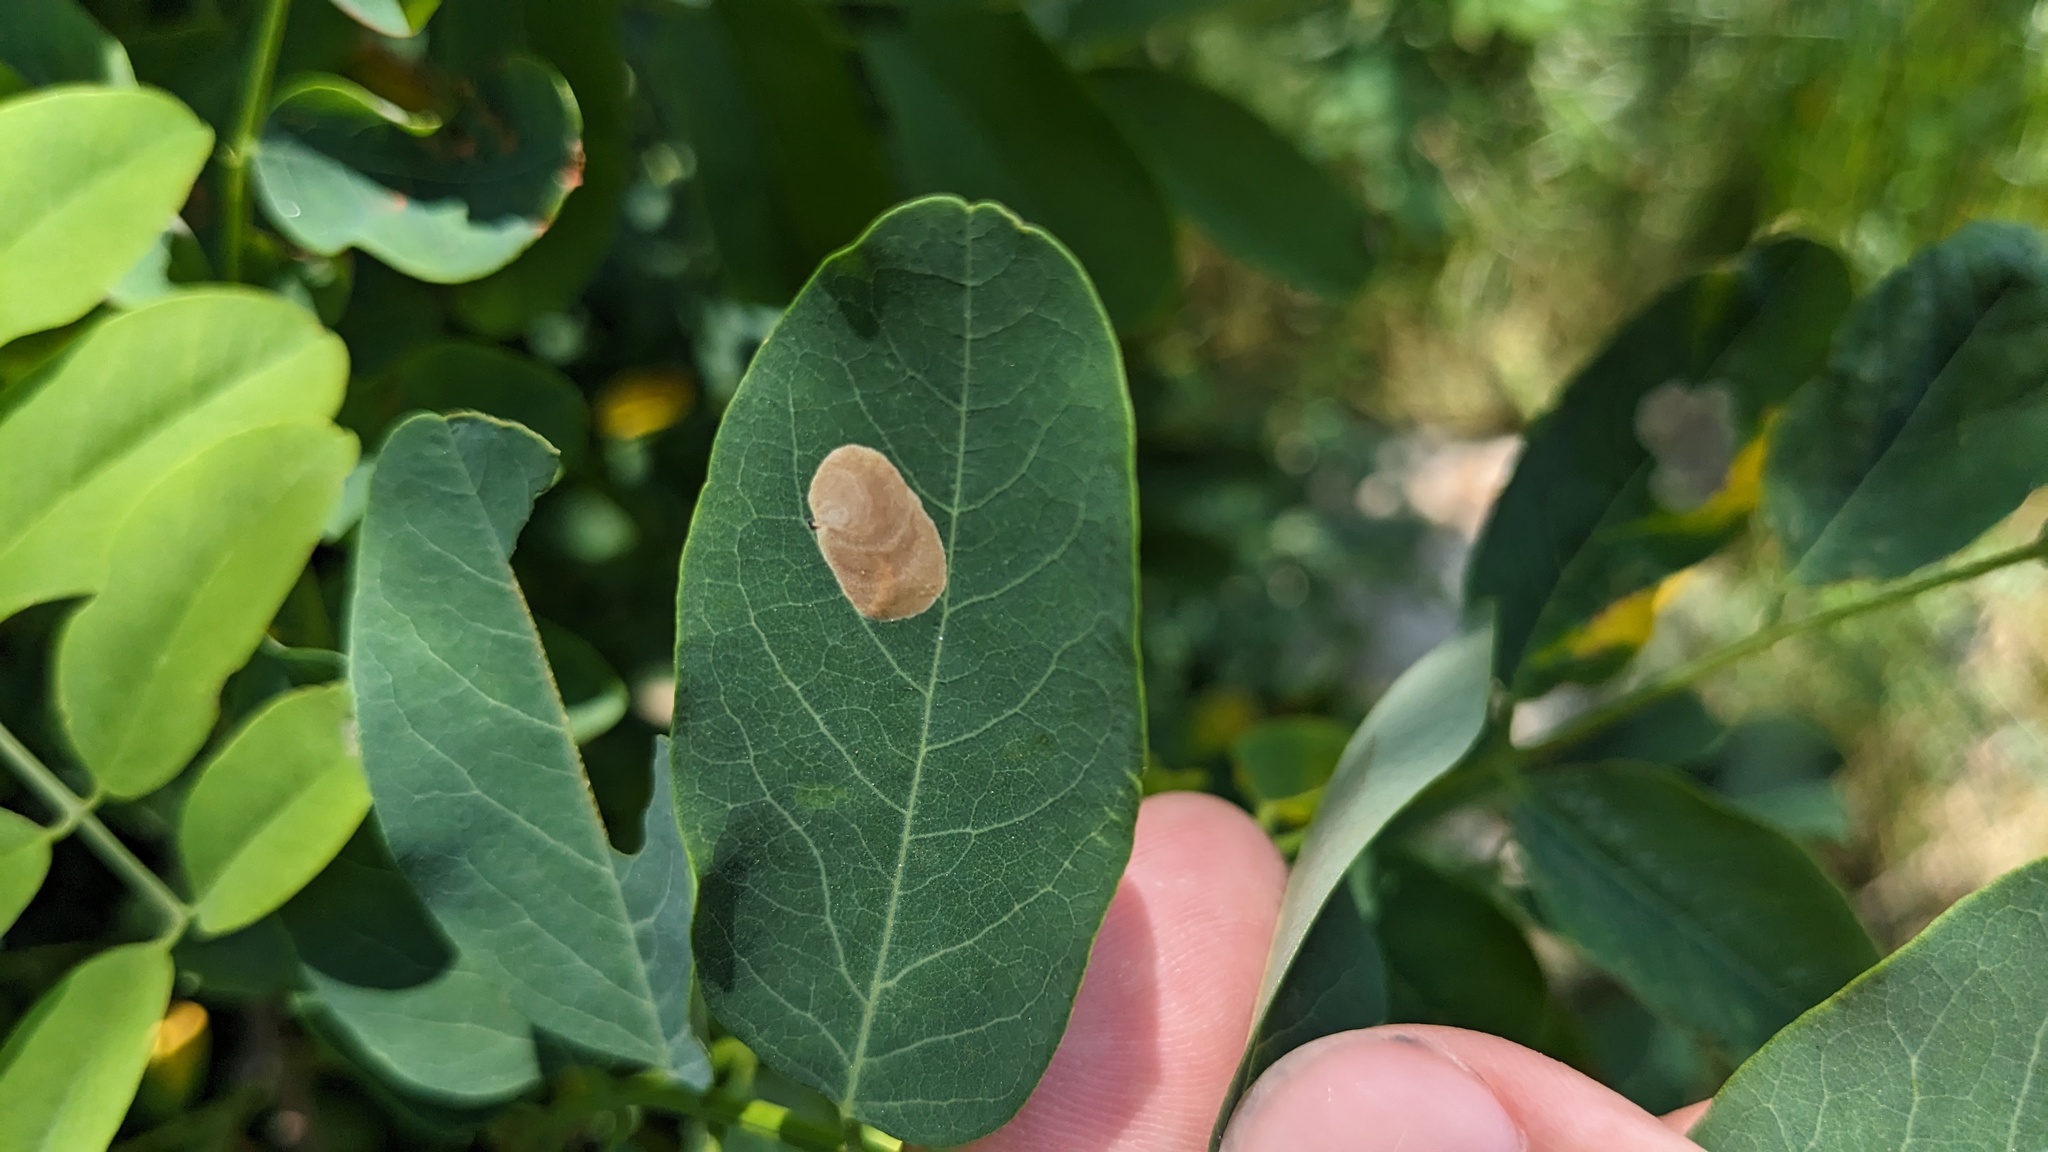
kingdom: Animalia
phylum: Arthropoda
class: Insecta
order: Lepidoptera
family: Gracillariidae
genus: Chrysaster
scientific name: Chrysaster ostensackenella
